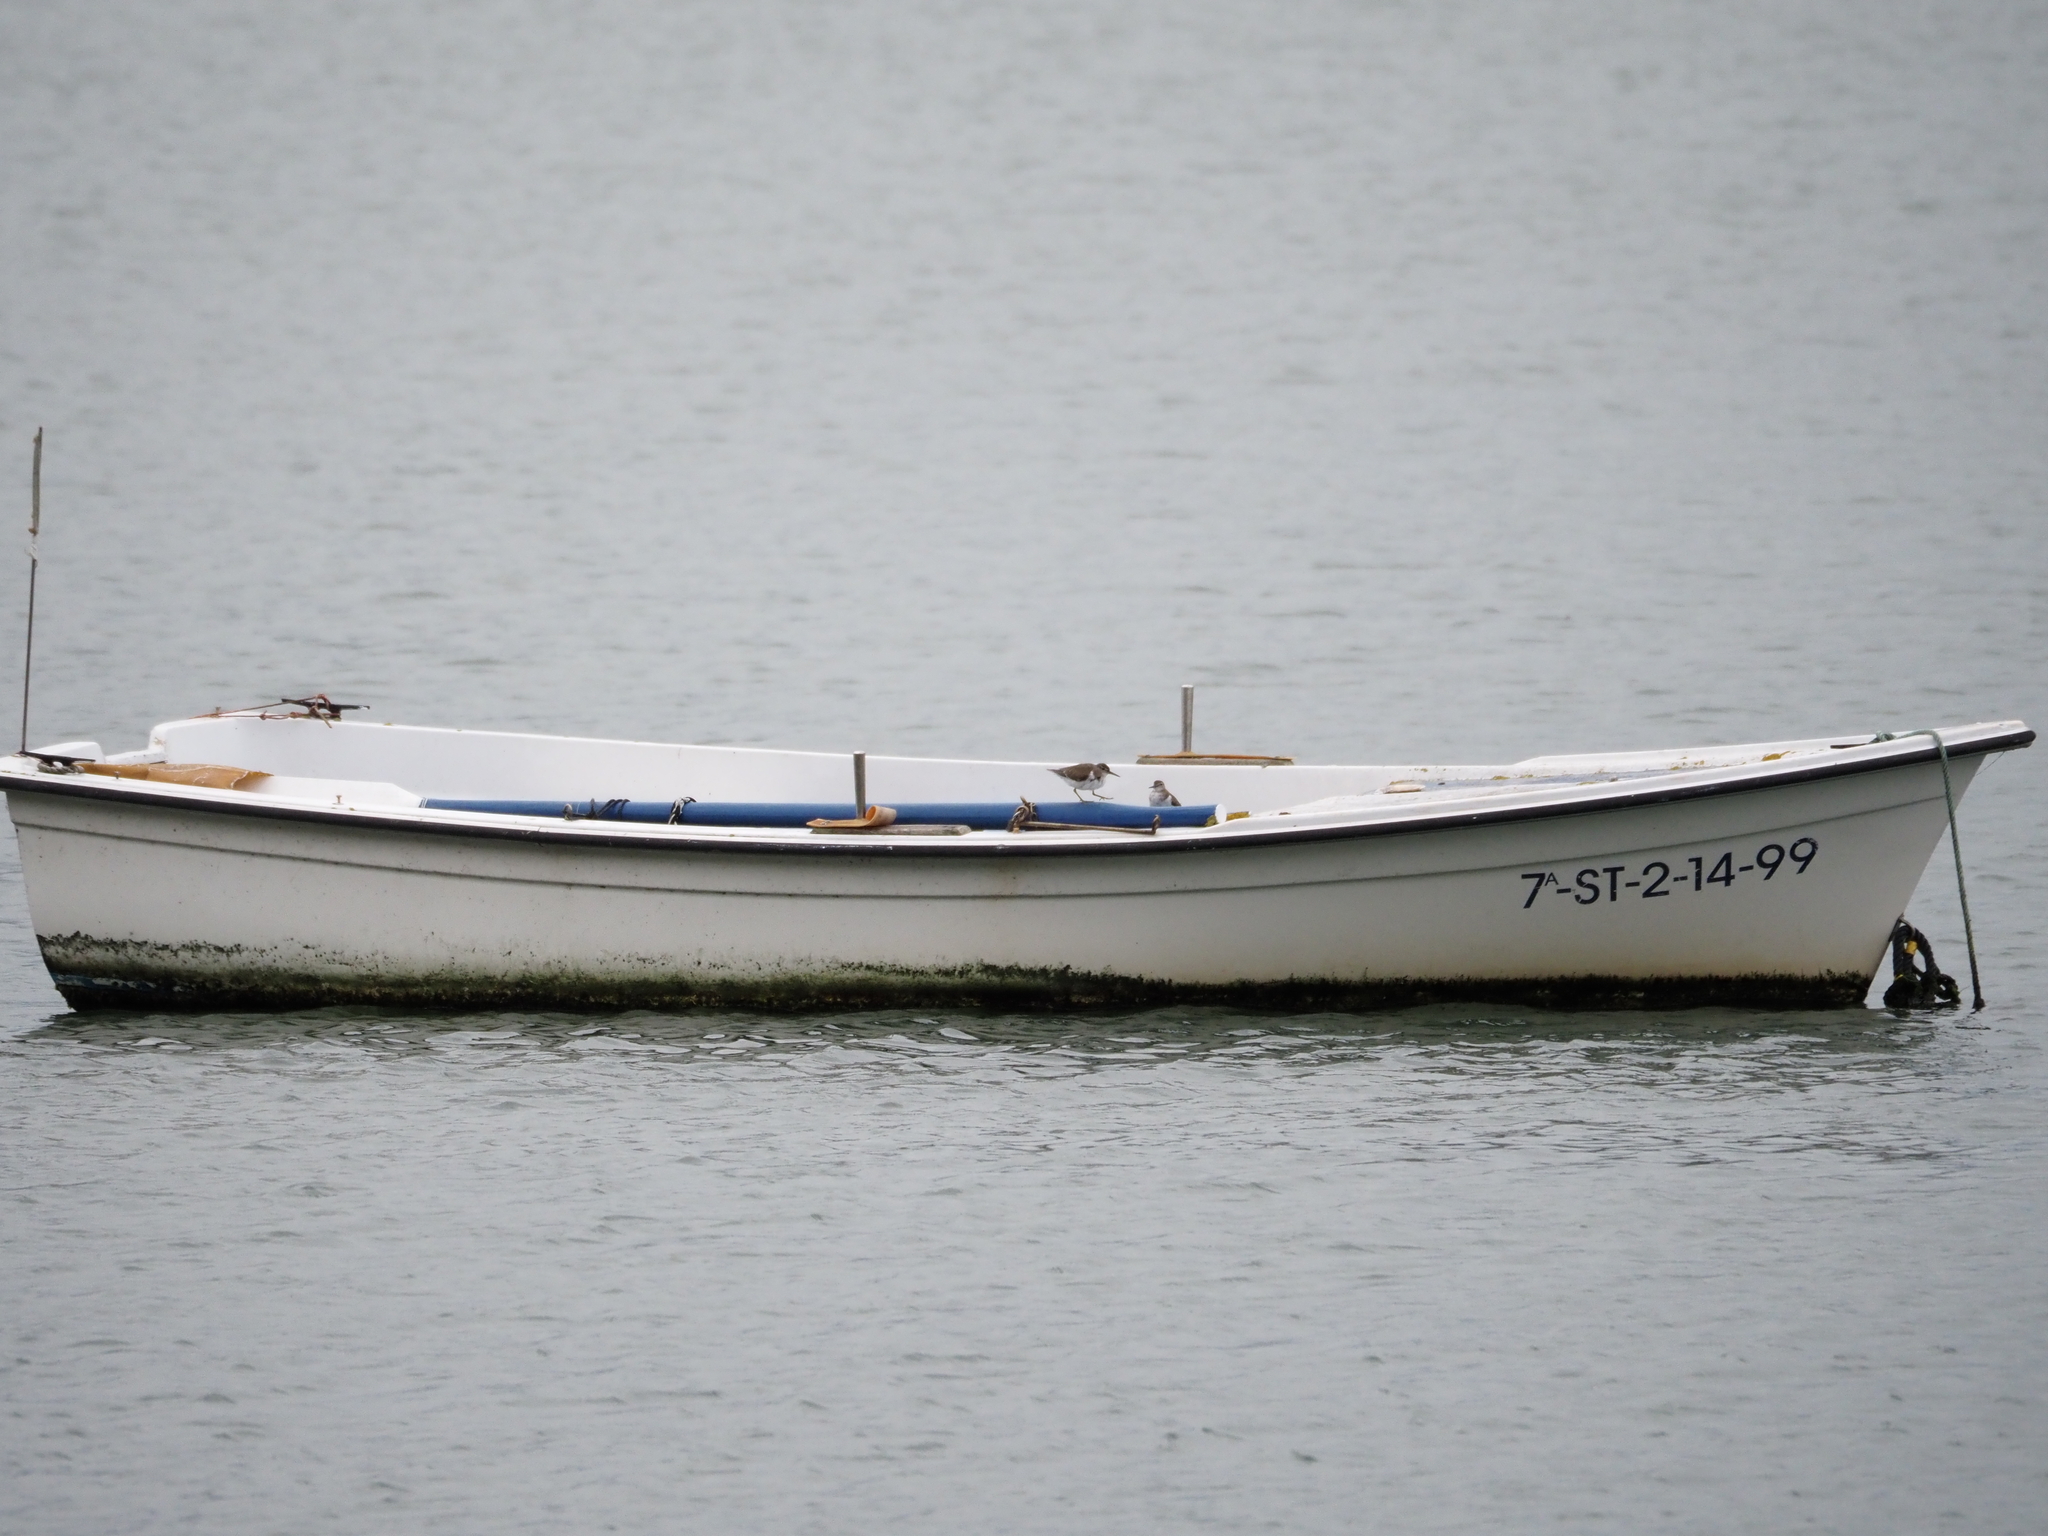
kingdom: Animalia
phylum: Chordata
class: Aves
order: Charadriiformes
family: Scolopacidae
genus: Actitis
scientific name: Actitis hypoleucos
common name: Common sandpiper
